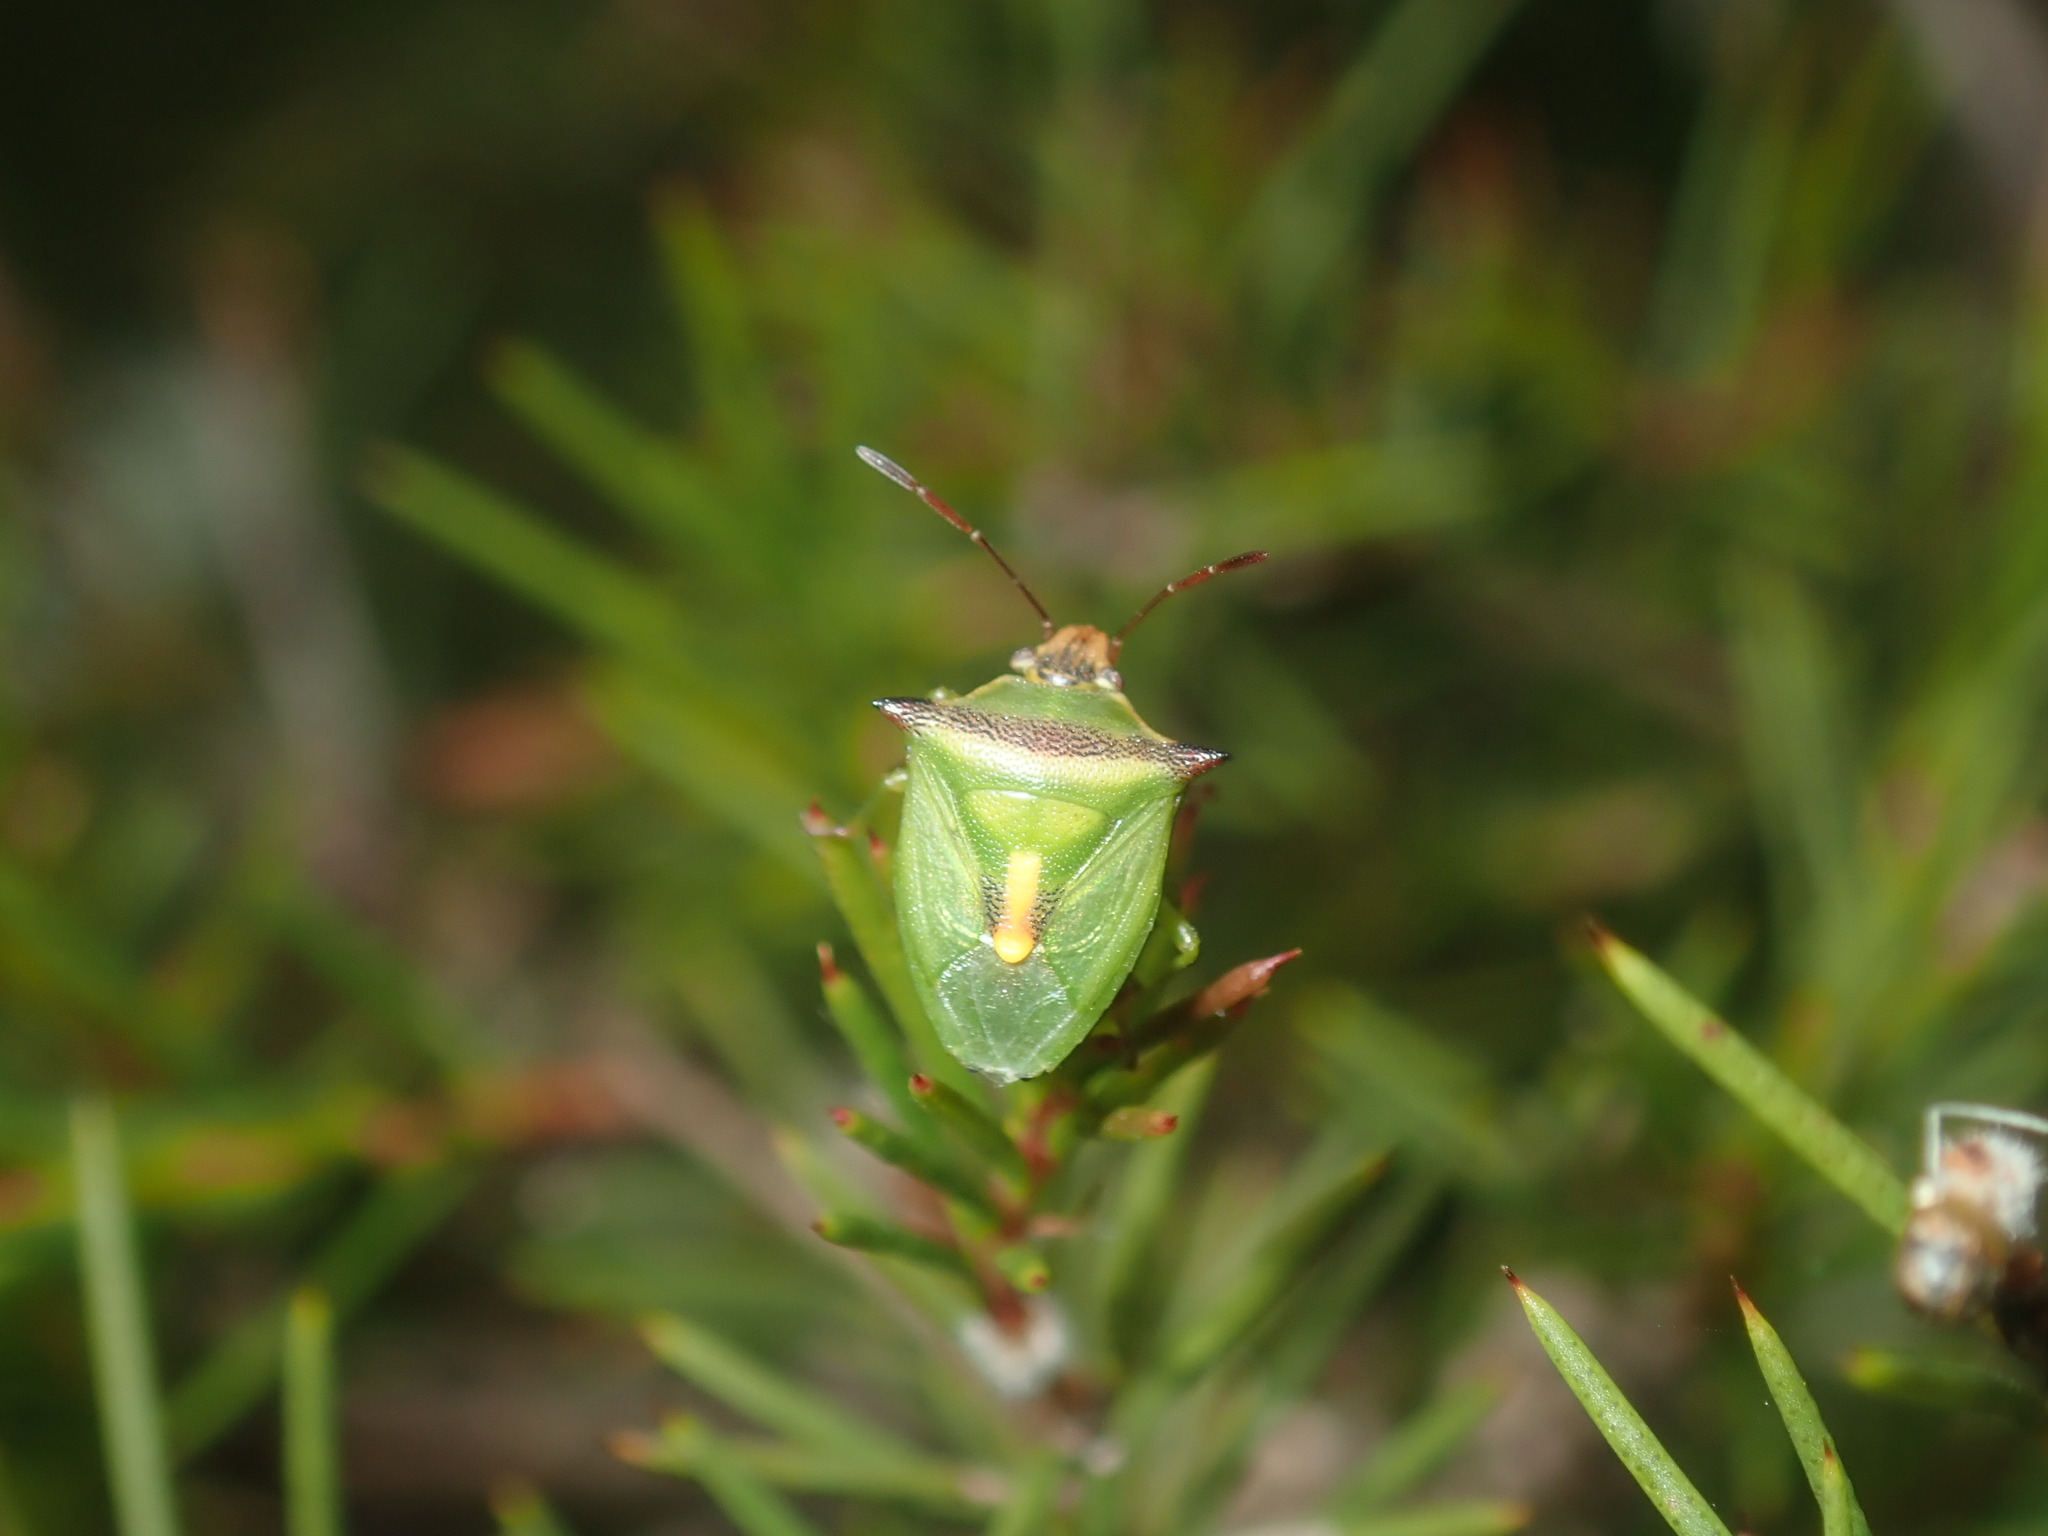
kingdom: Animalia
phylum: Arthropoda
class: Insecta
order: Hemiptera
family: Pentatomidae
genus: Cuspicona
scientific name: Cuspicona
